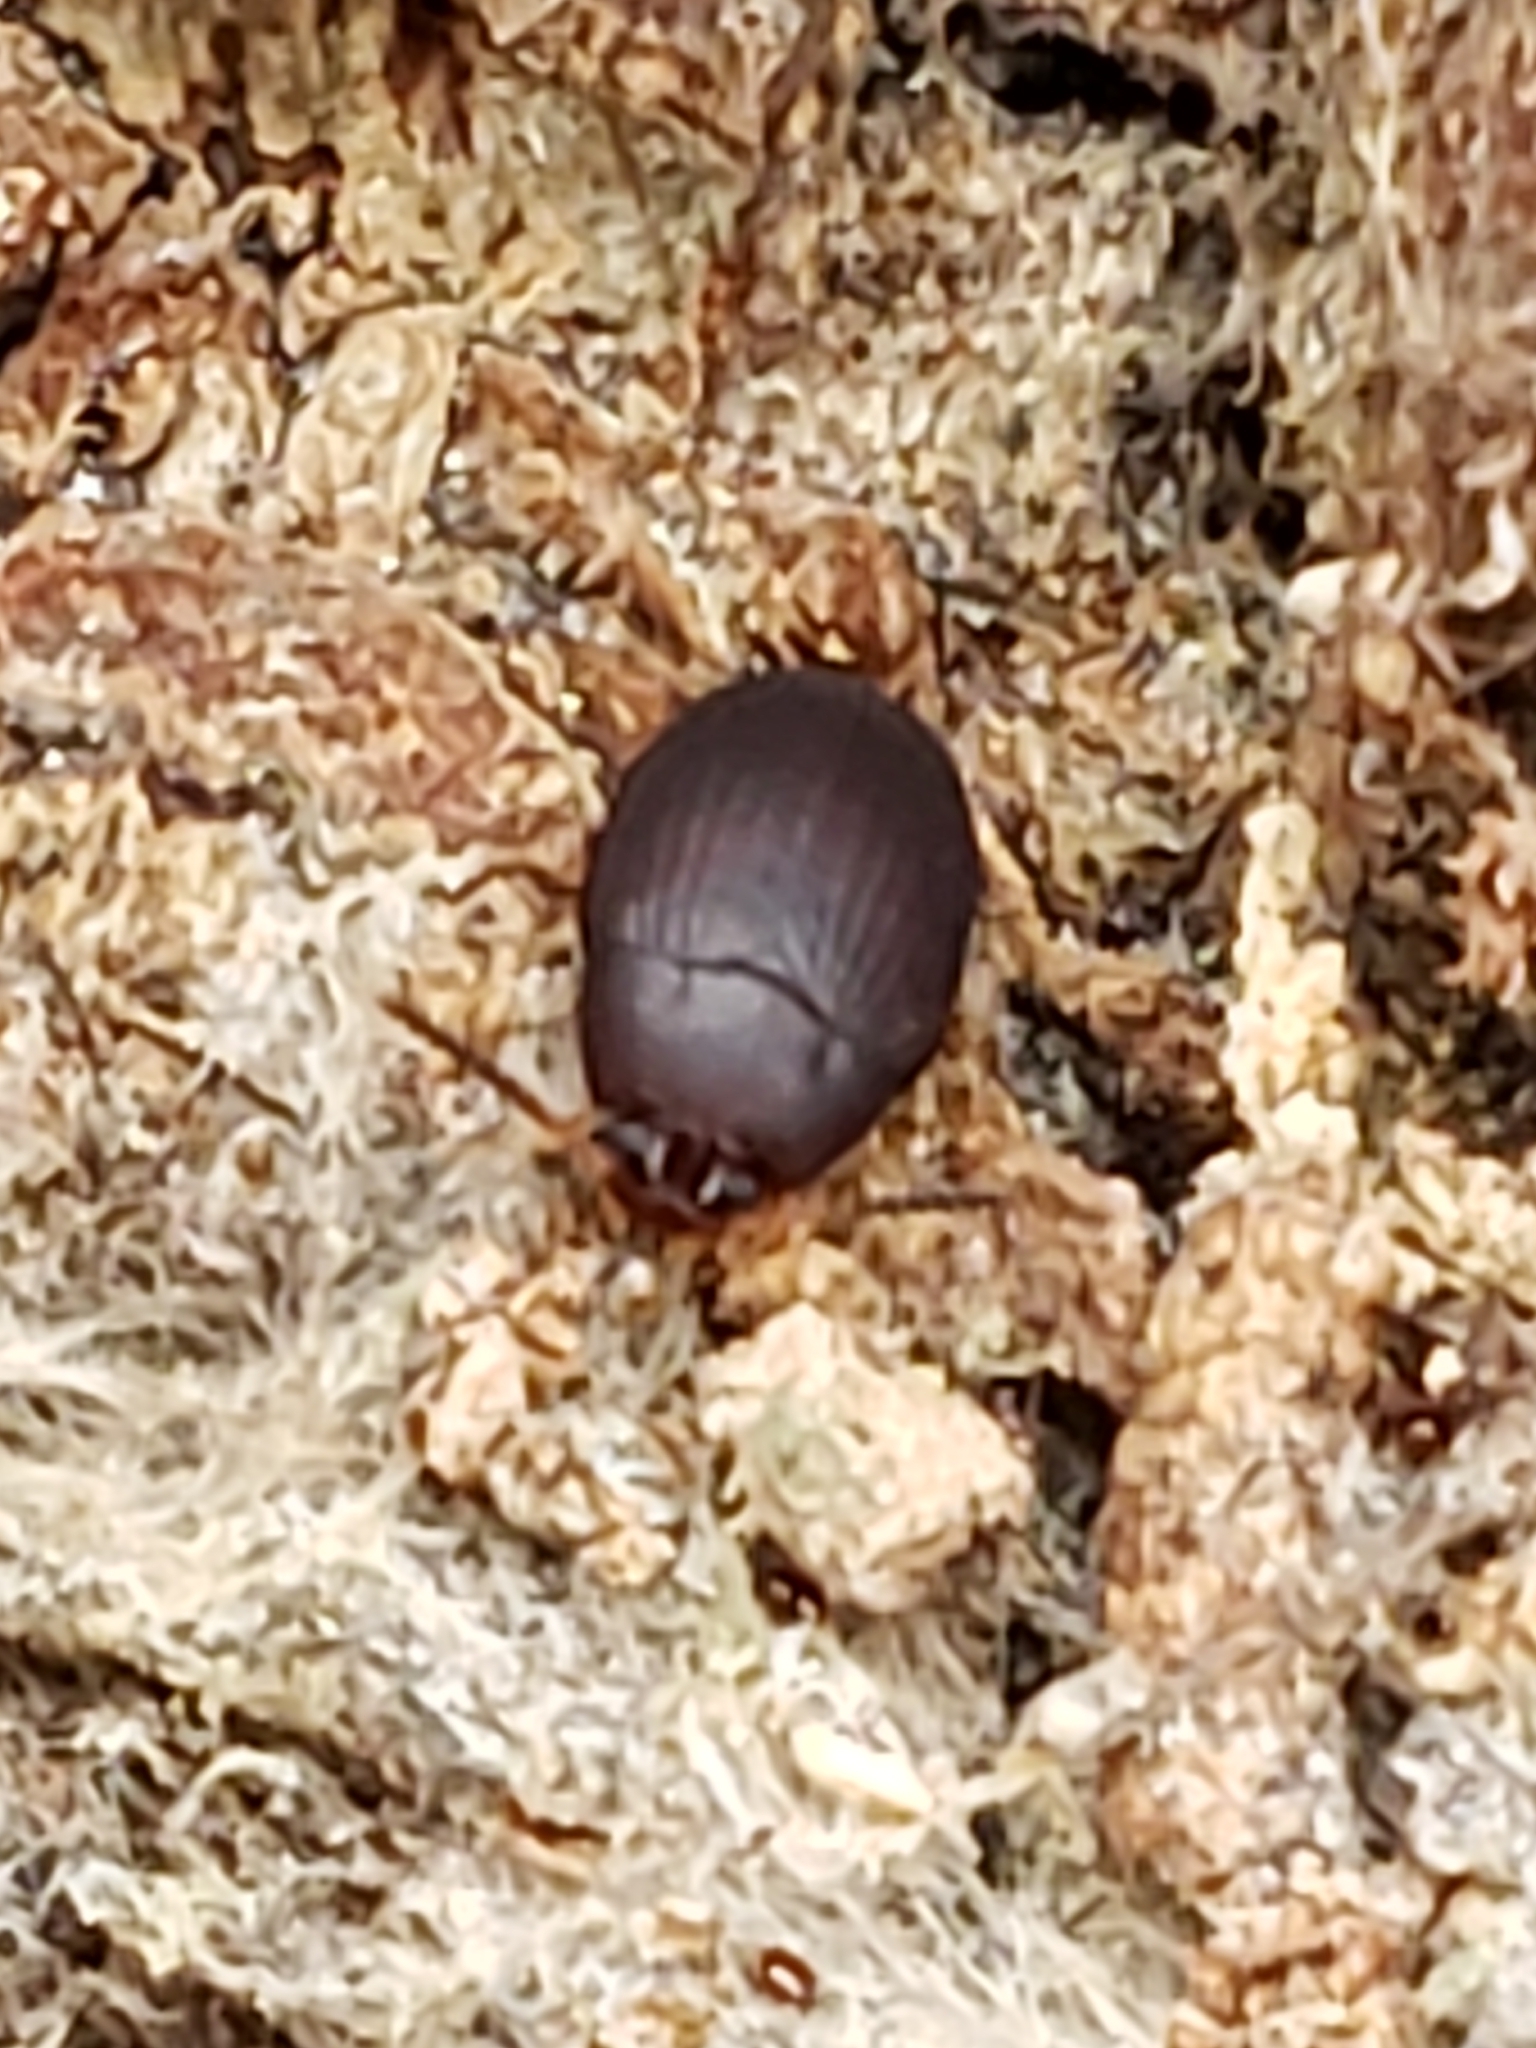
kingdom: Animalia
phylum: Arthropoda
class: Insecta
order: Coleoptera
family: Tenebrionidae
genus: Platydema
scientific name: Platydema erythrocera
